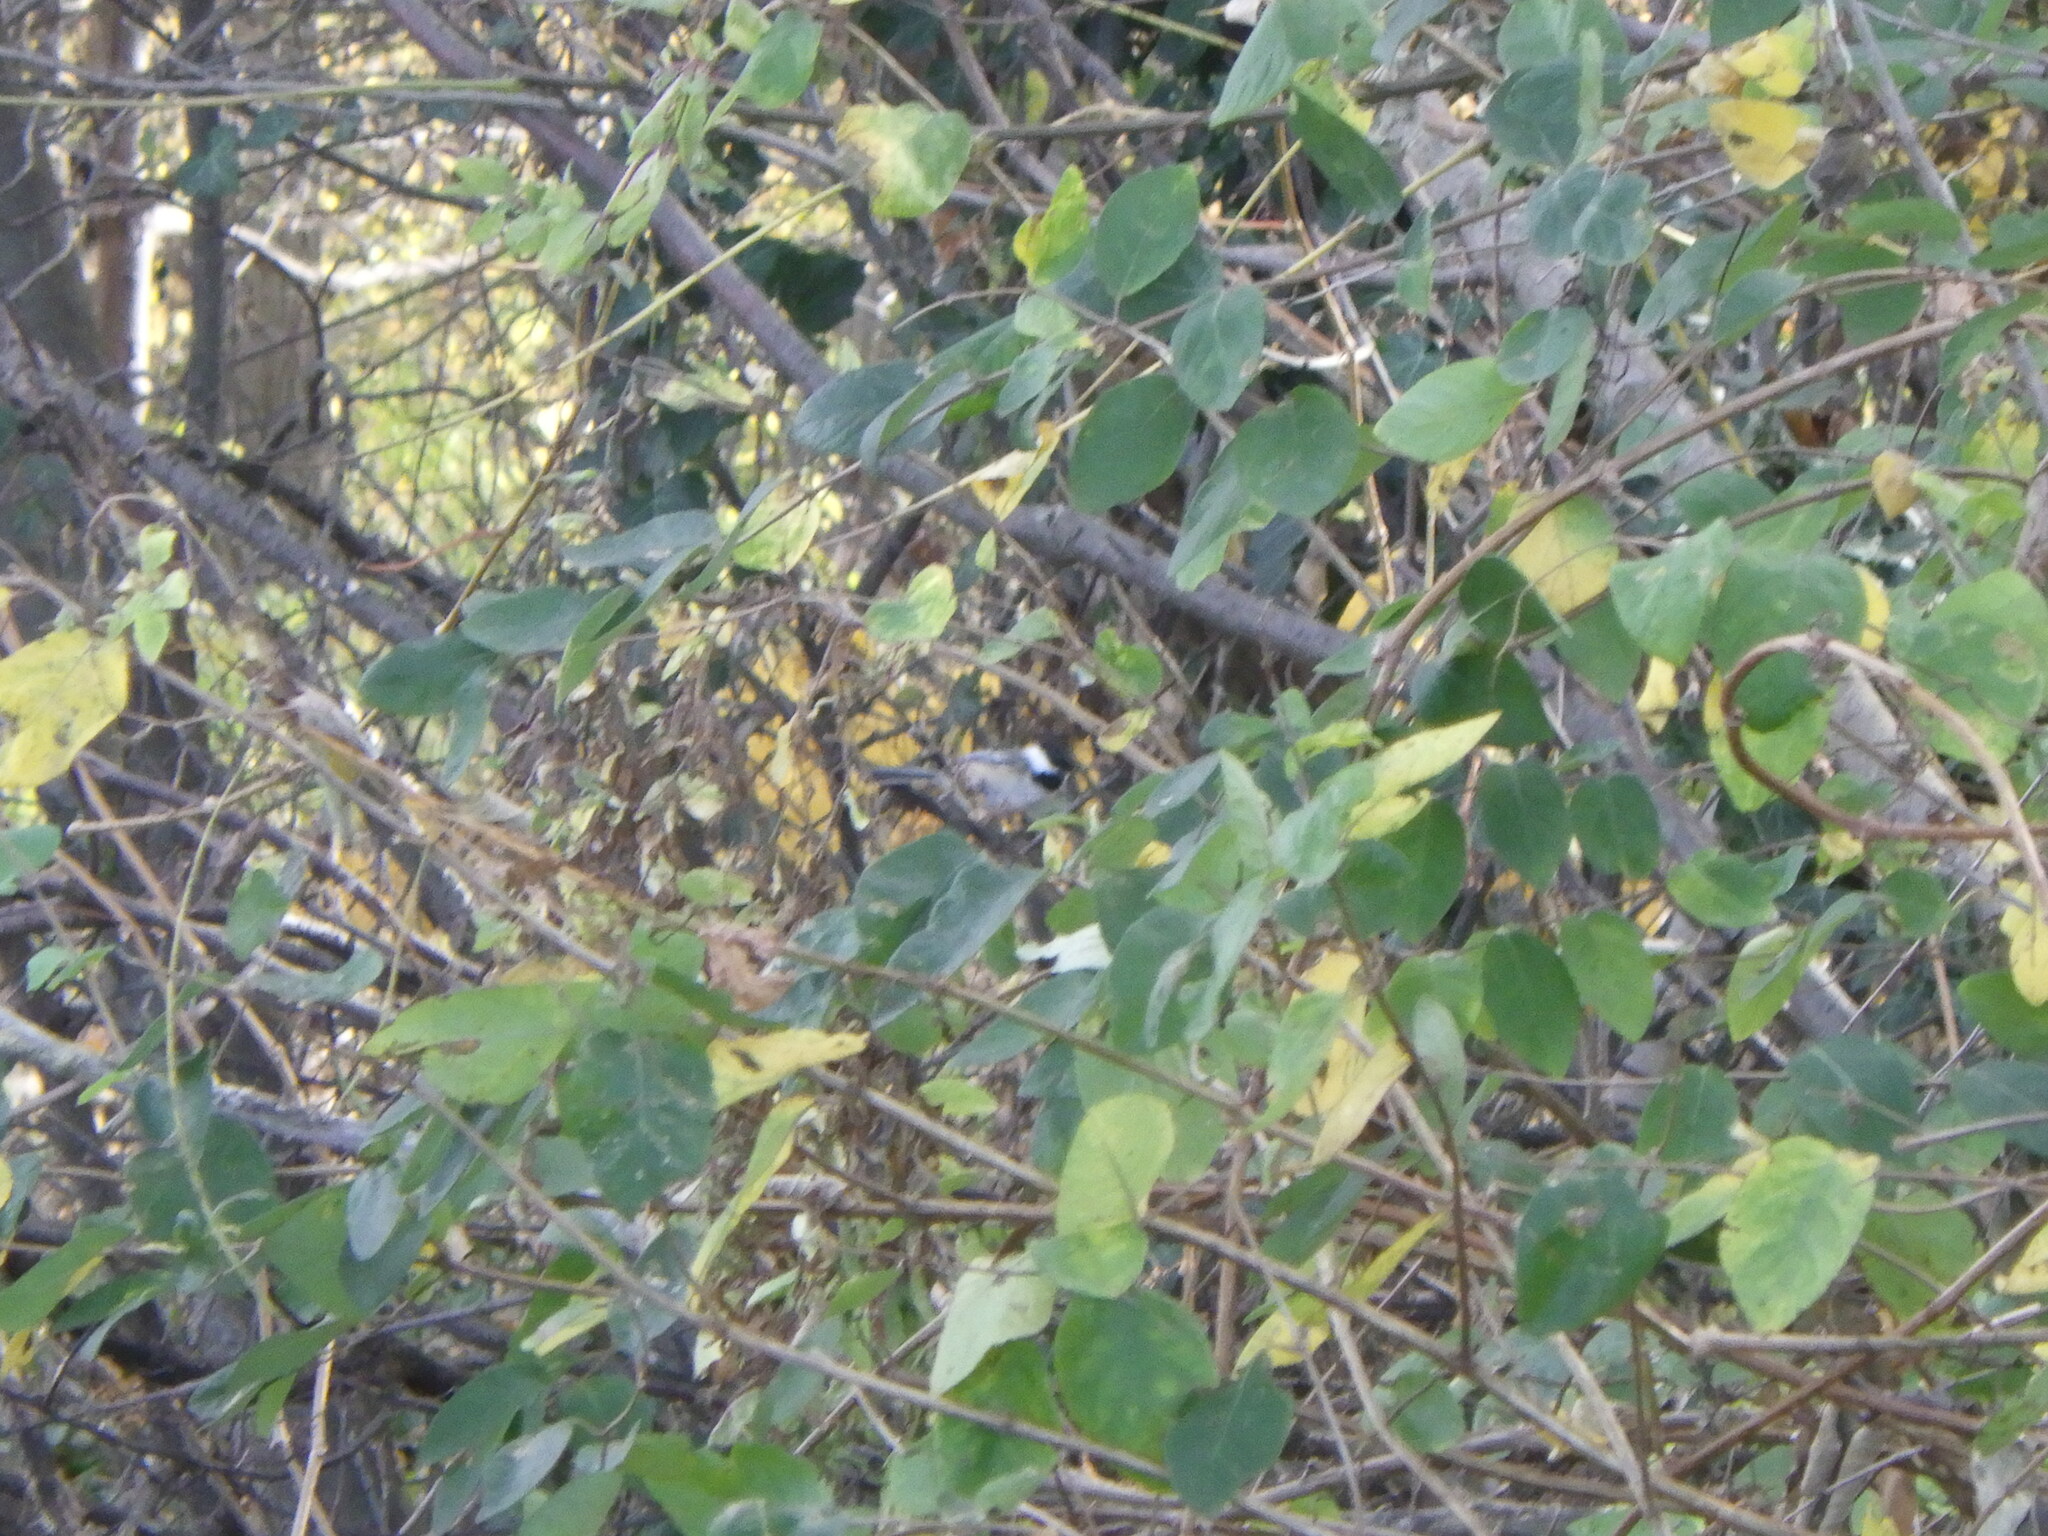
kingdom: Animalia
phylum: Chordata
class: Aves
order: Passeriformes
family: Paridae
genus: Poecile
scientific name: Poecile atricapillus
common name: Black-capped chickadee
